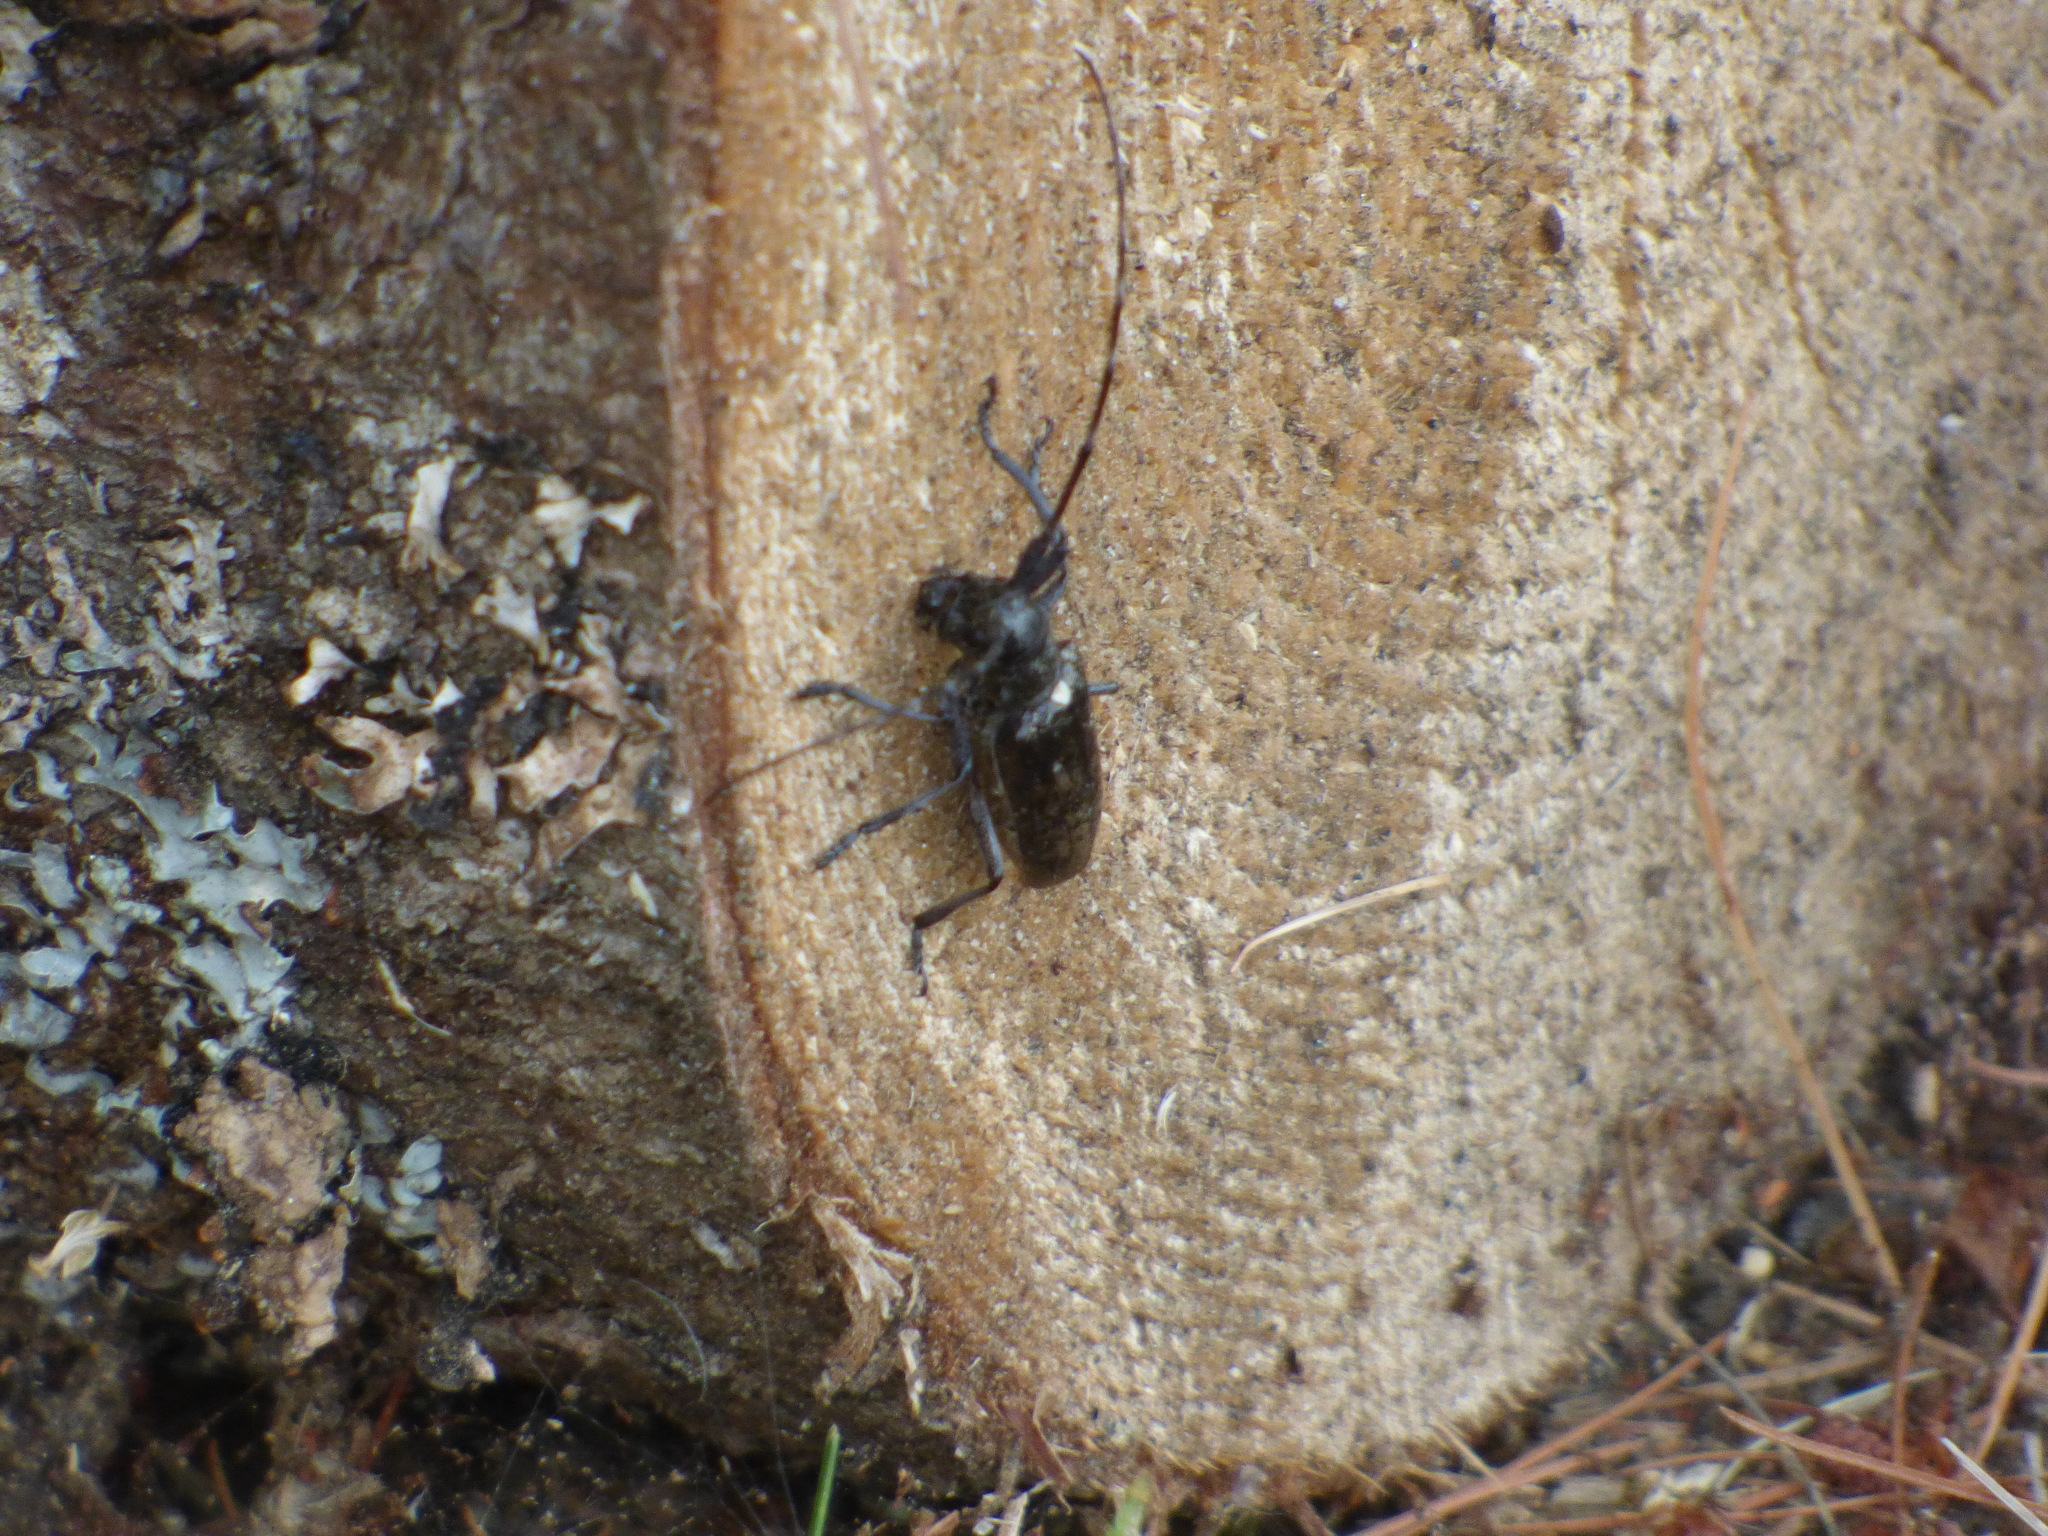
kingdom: Animalia
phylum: Arthropoda
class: Insecta
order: Coleoptera
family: Cerambycidae
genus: Monochamus
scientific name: Monochamus scutellatus
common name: White-spotted sawyer beetle
